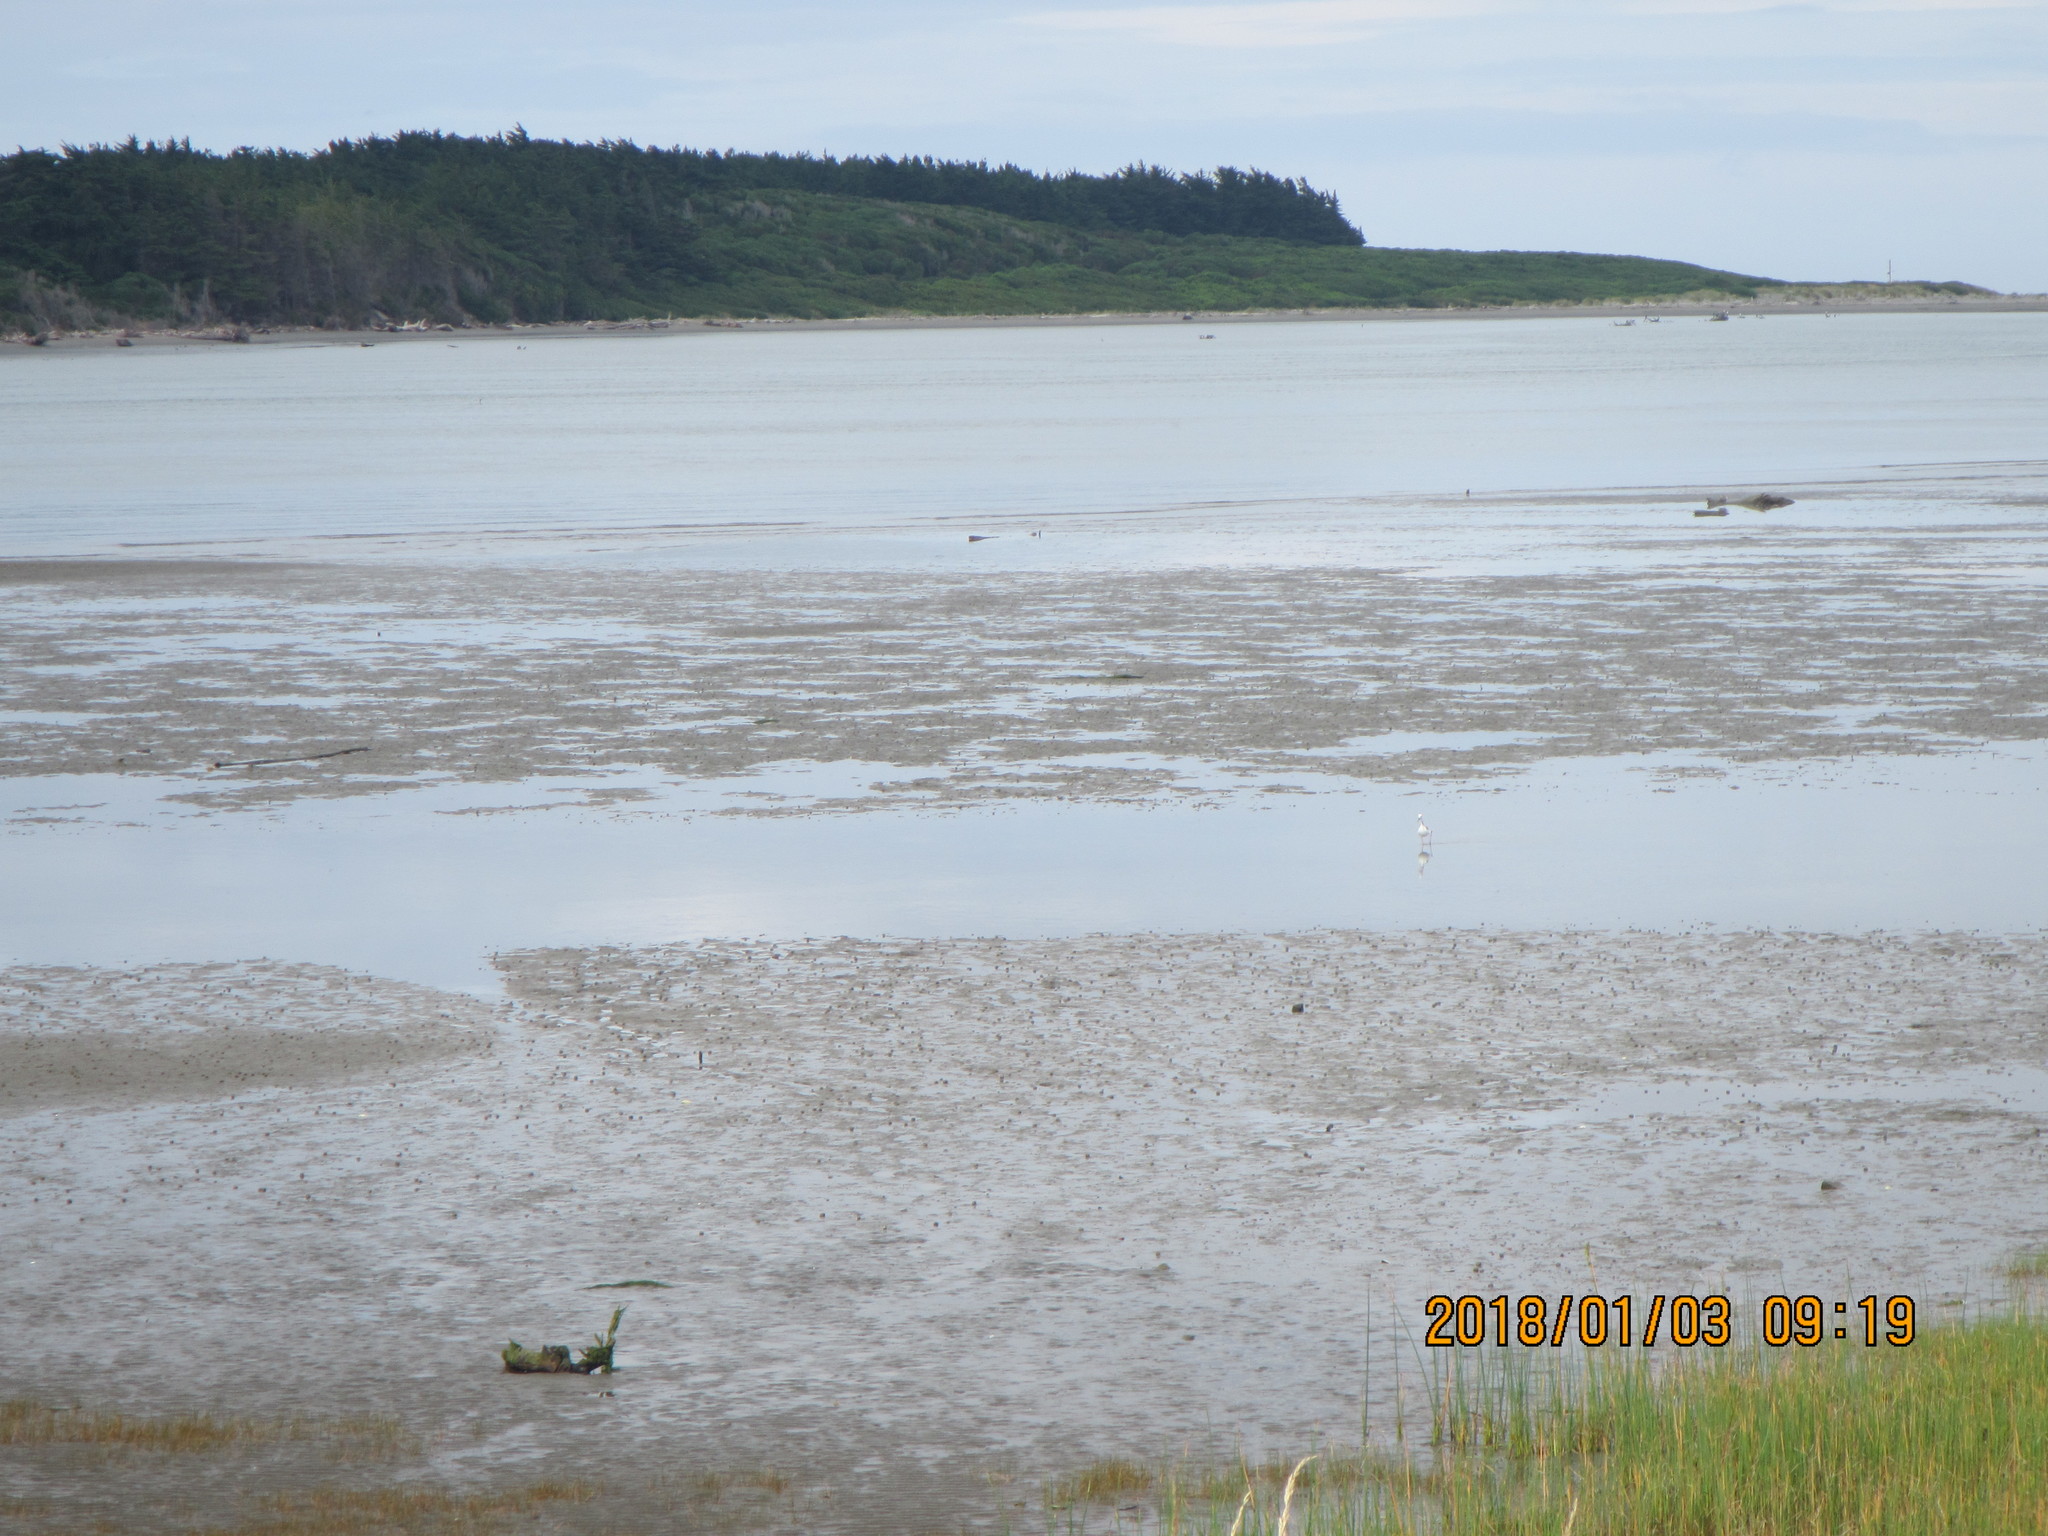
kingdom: Animalia
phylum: Chordata
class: Aves
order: Charadriiformes
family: Recurvirostridae
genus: Himantopus
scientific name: Himantopus leucocephalus
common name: White-headed stilt
